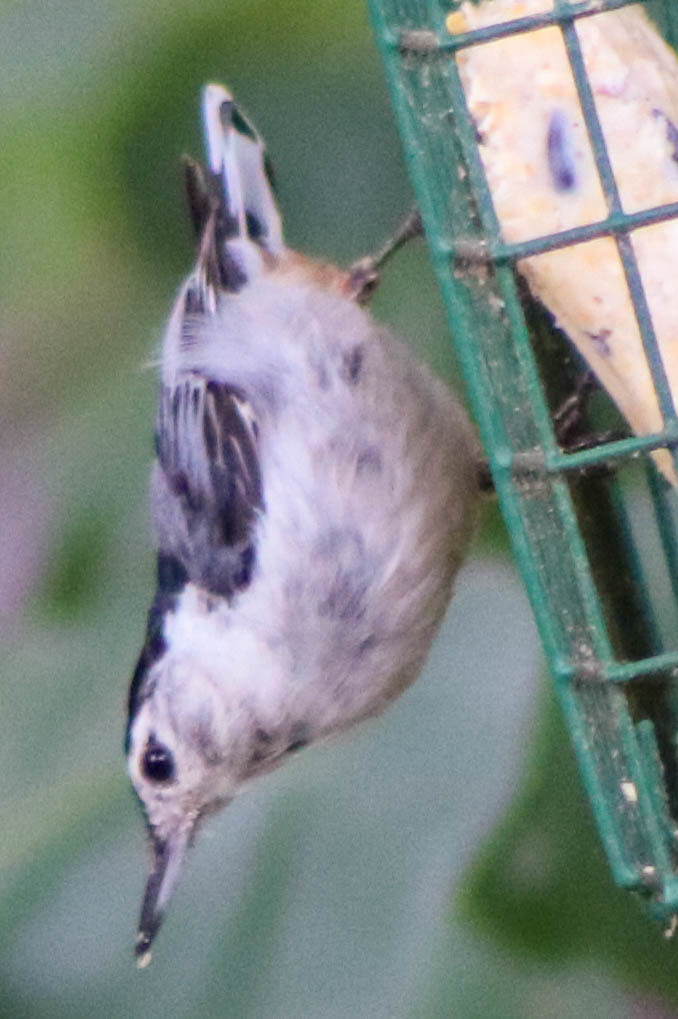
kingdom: Animalia
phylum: Chordata
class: Aves
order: Passeriformes
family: Sittidae
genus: Sitta
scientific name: Sitta carolinensis
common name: White-breasted nuthatch
